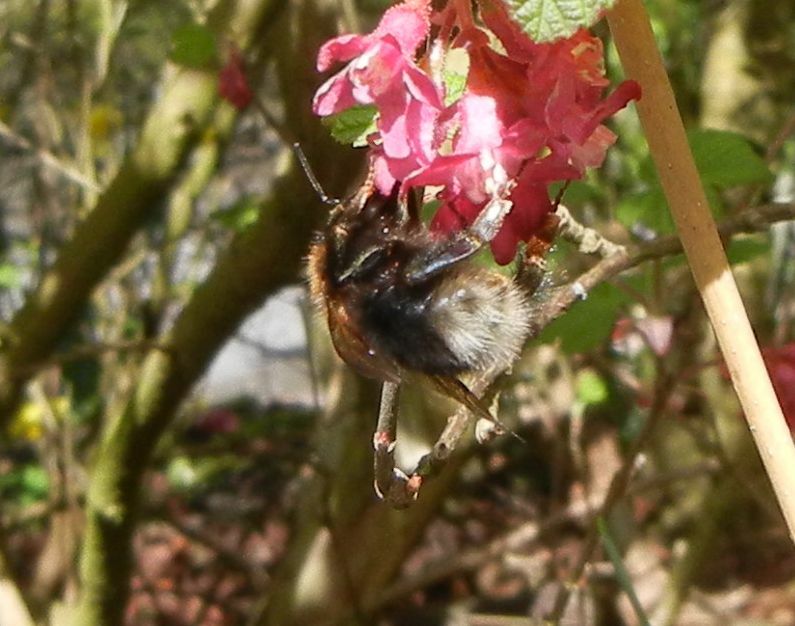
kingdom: Animalia
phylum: Arthropoda
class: Insecta
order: Hymenoptera
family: Apidae
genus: Bombus
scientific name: Bombus hypnorum
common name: New garden bumblebee
